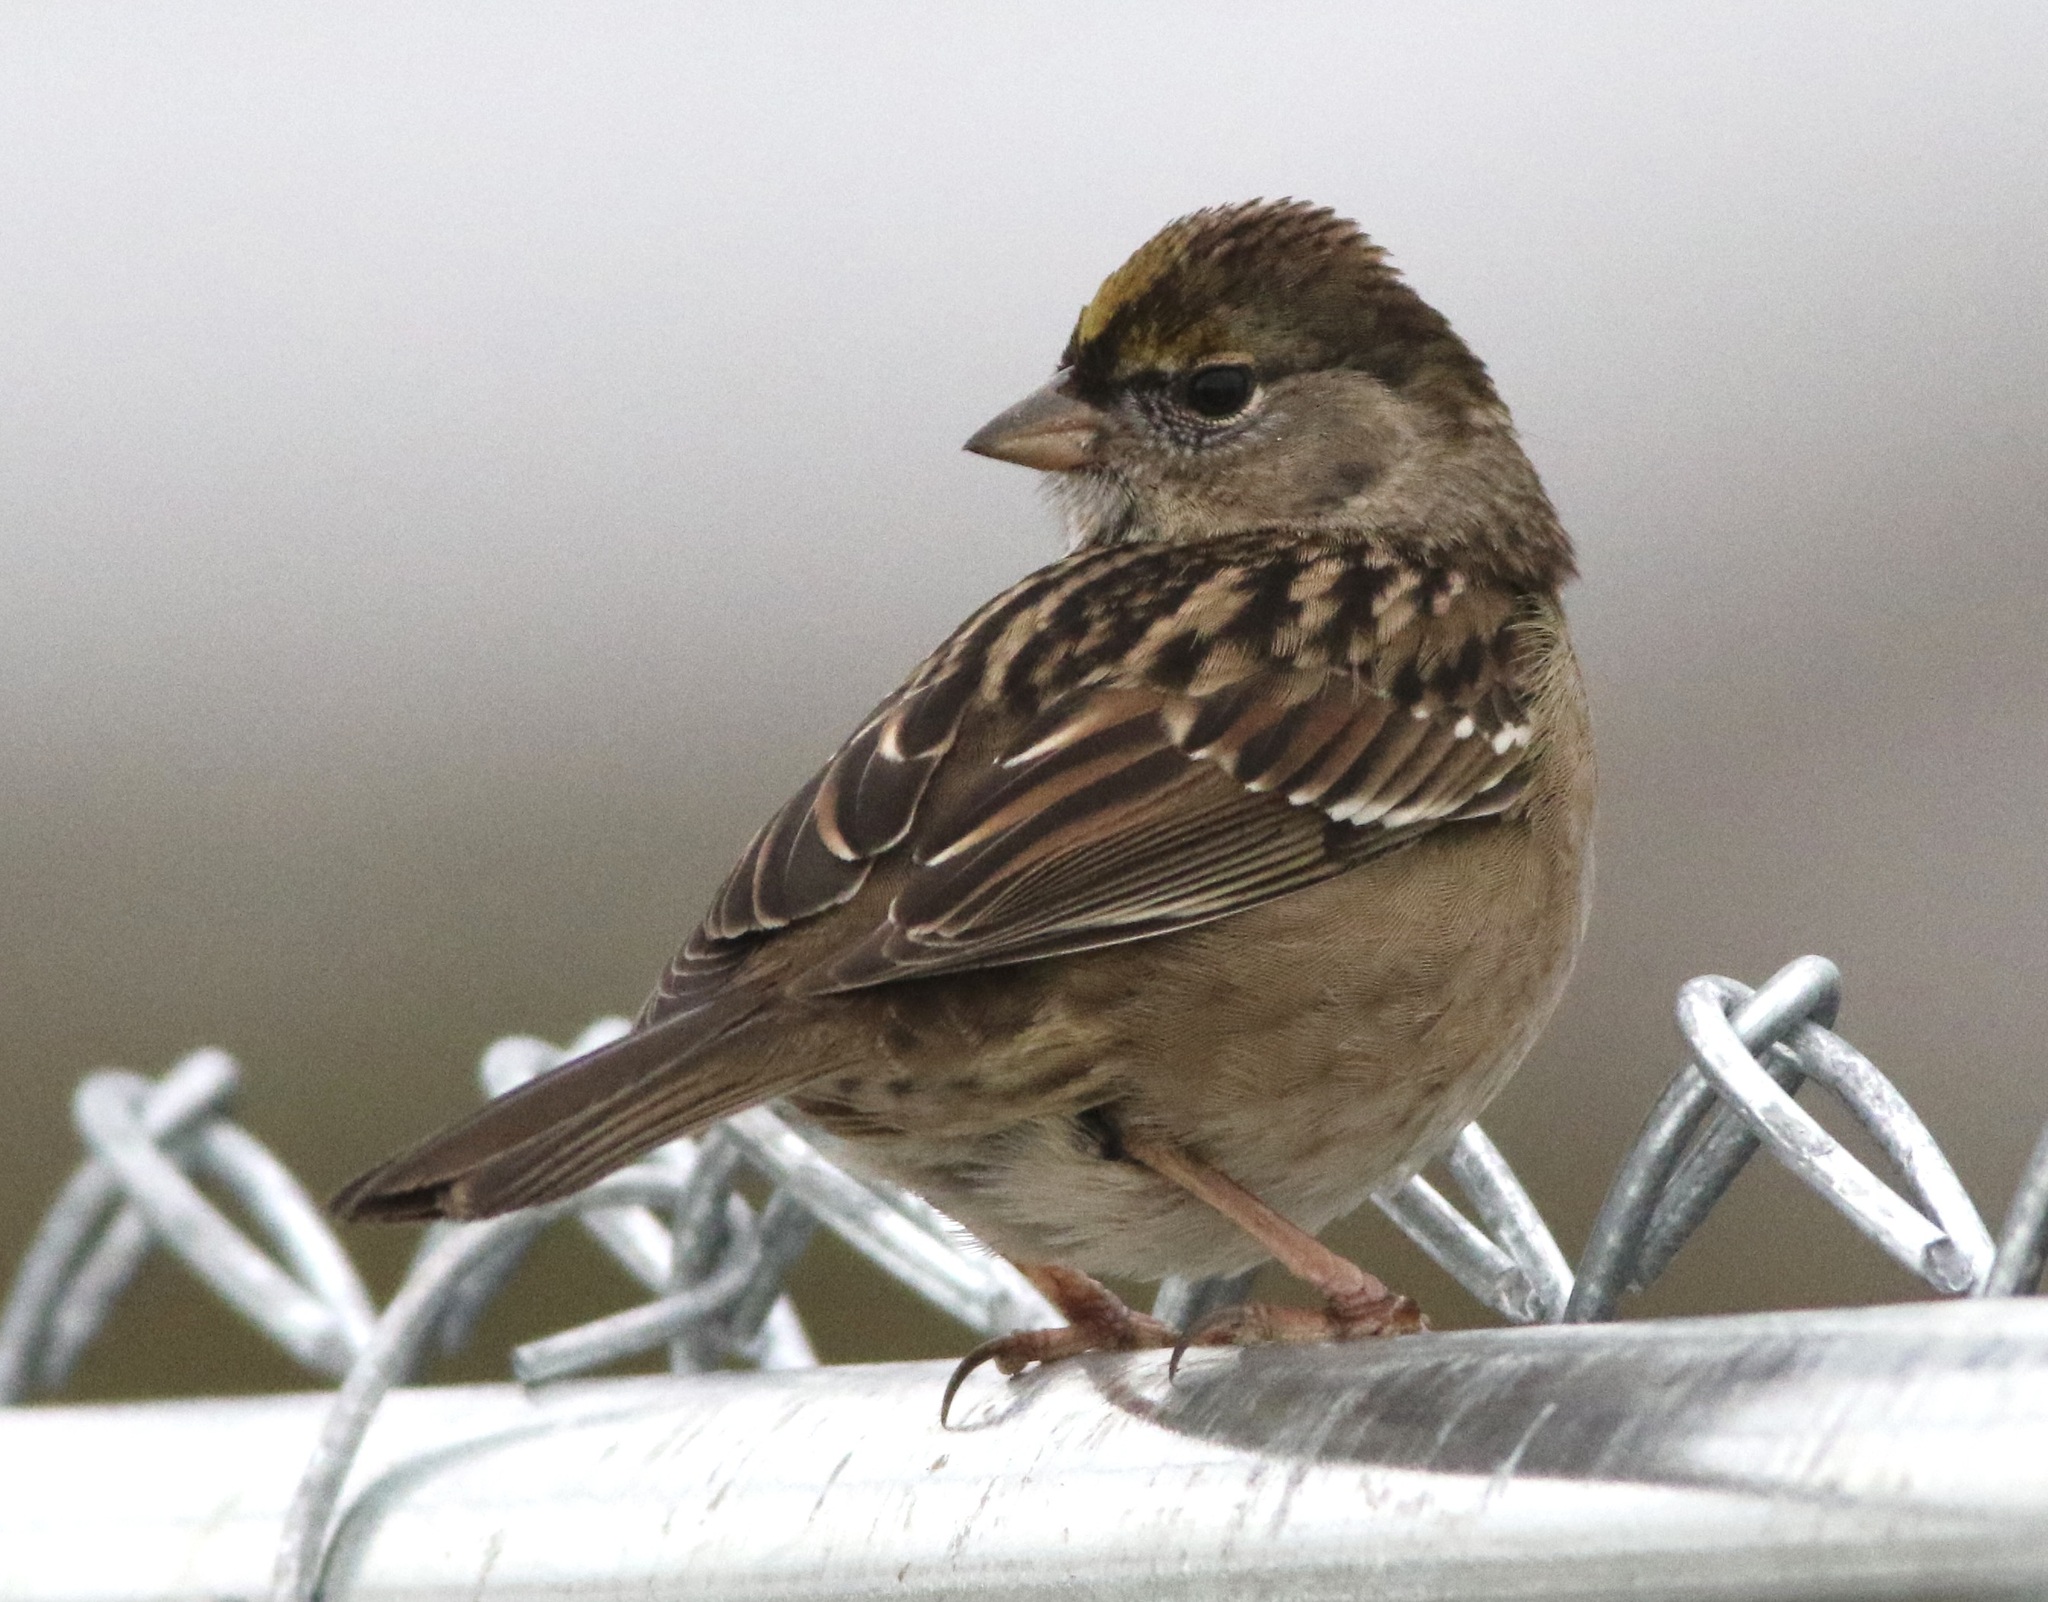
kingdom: Animalia
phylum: Chordata
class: Aves
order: Passeriformes
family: Passerellidae
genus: Zonotrichia
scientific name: Zonotrichia atricapilla
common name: Golden-crowned sparrow
